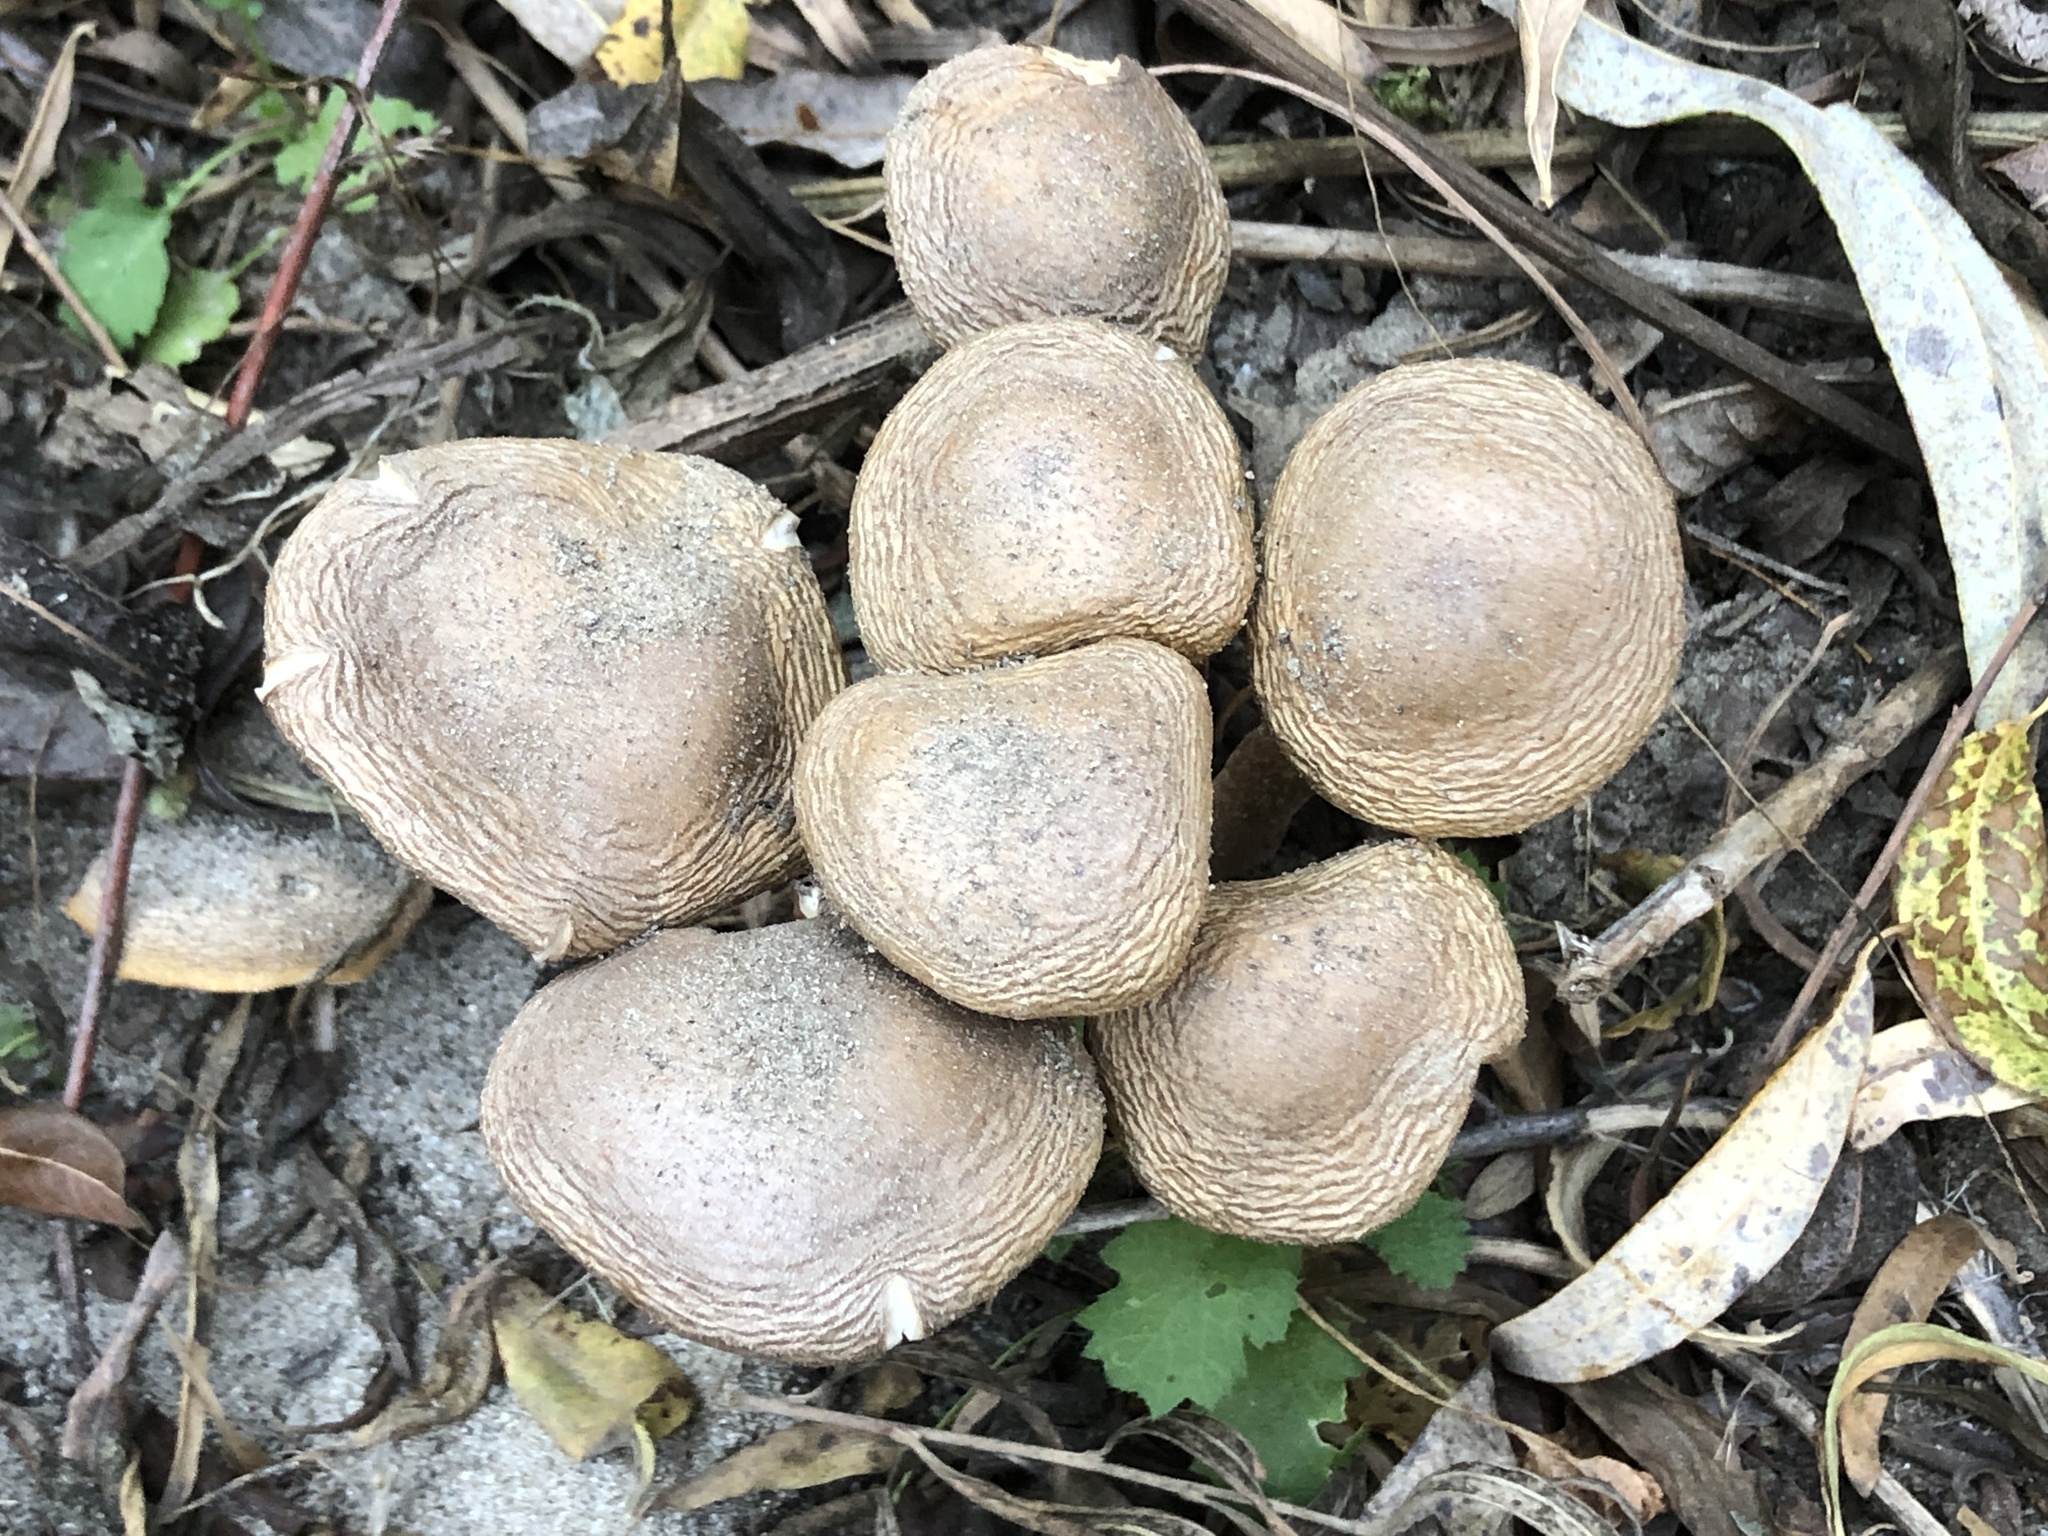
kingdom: Fungi
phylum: Basidiomycota
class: Agaricomycetes
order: Agaricales
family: Physalacriaceae
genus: Armillaria
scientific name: Armillaria mellea
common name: Honey fungus
